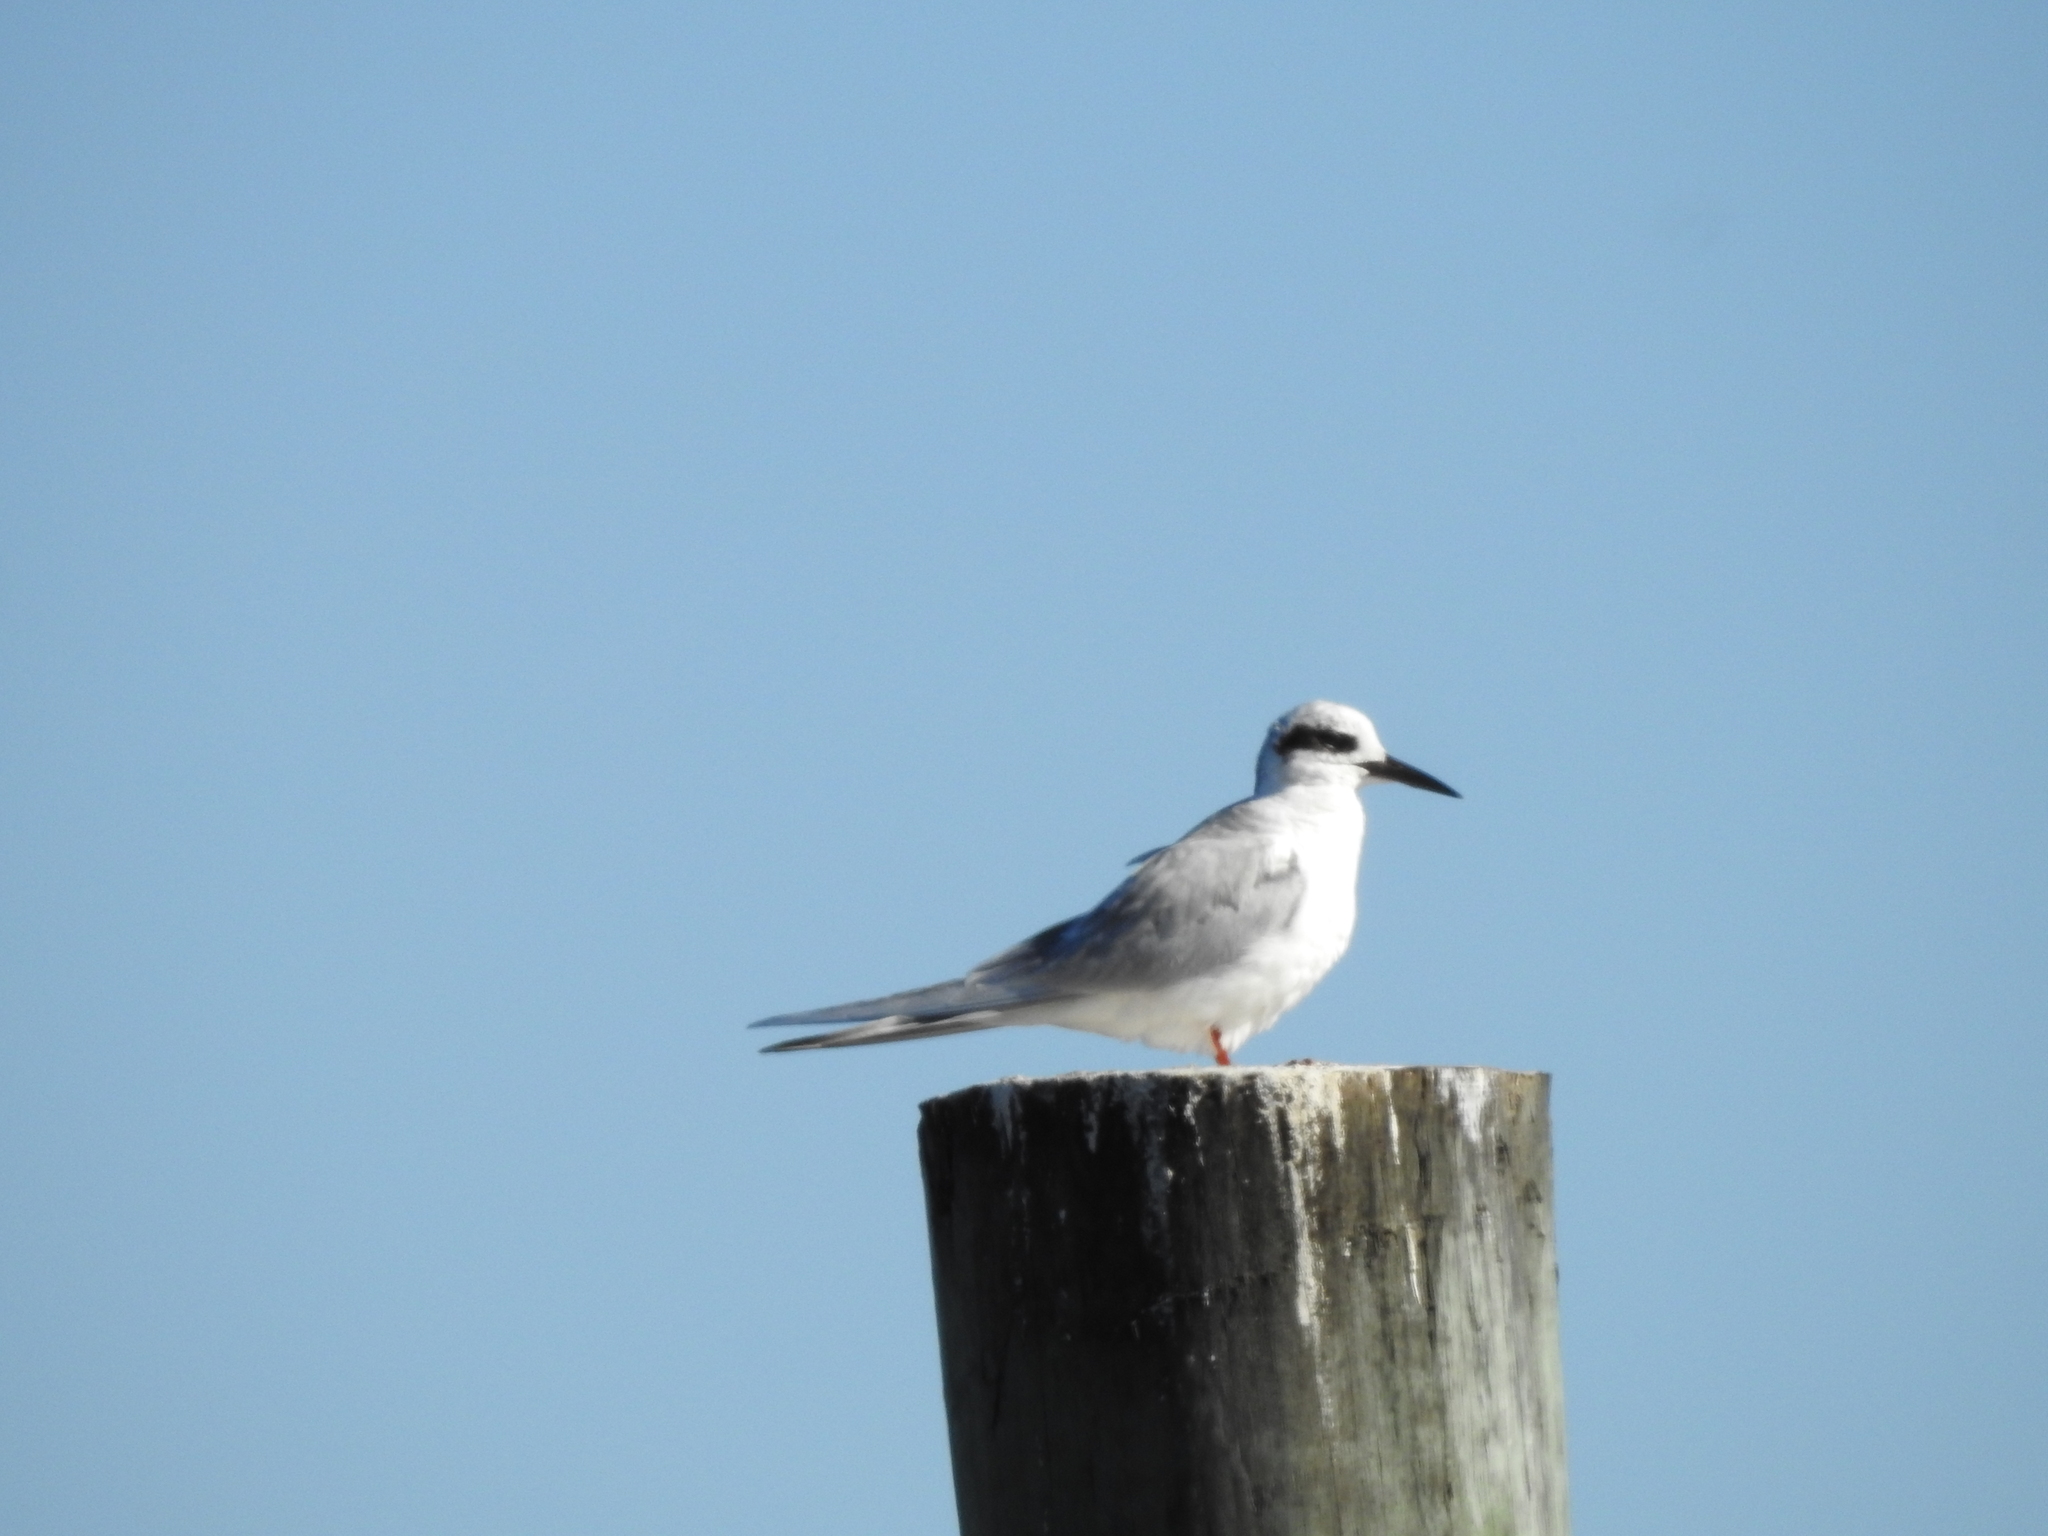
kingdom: Animalia
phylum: Chordata
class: Aves
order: Charadriiformes
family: Laridae
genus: Sterna
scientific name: Sterna forsteri
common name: Forster's tern
